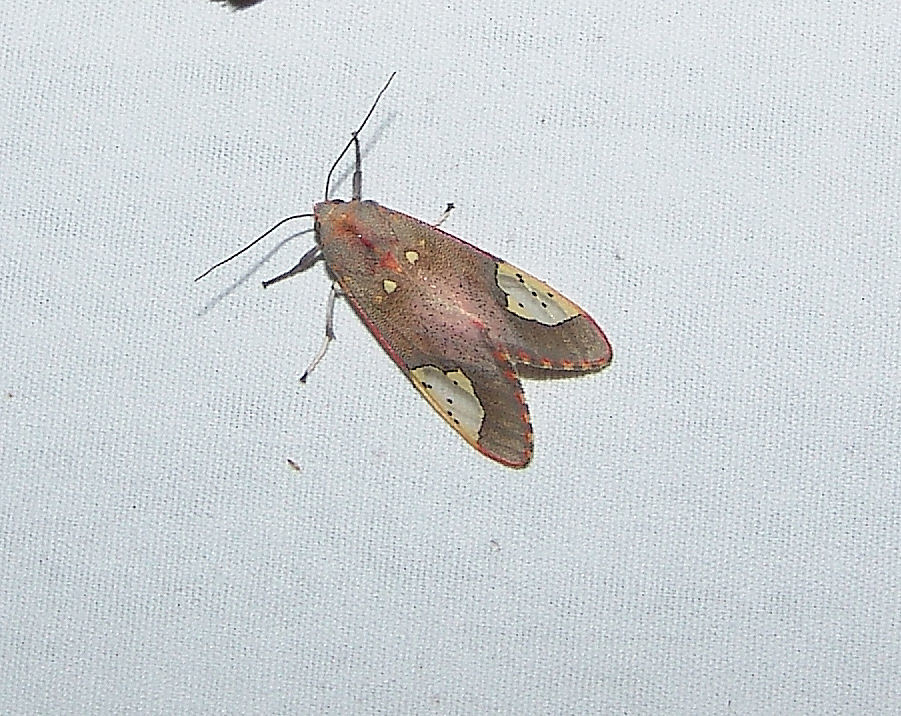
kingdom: Animalia
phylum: Arthropoda
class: Insecta
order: Lepidoptera
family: Erebidae
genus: Bertholdia
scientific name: Bertholdia trigona
